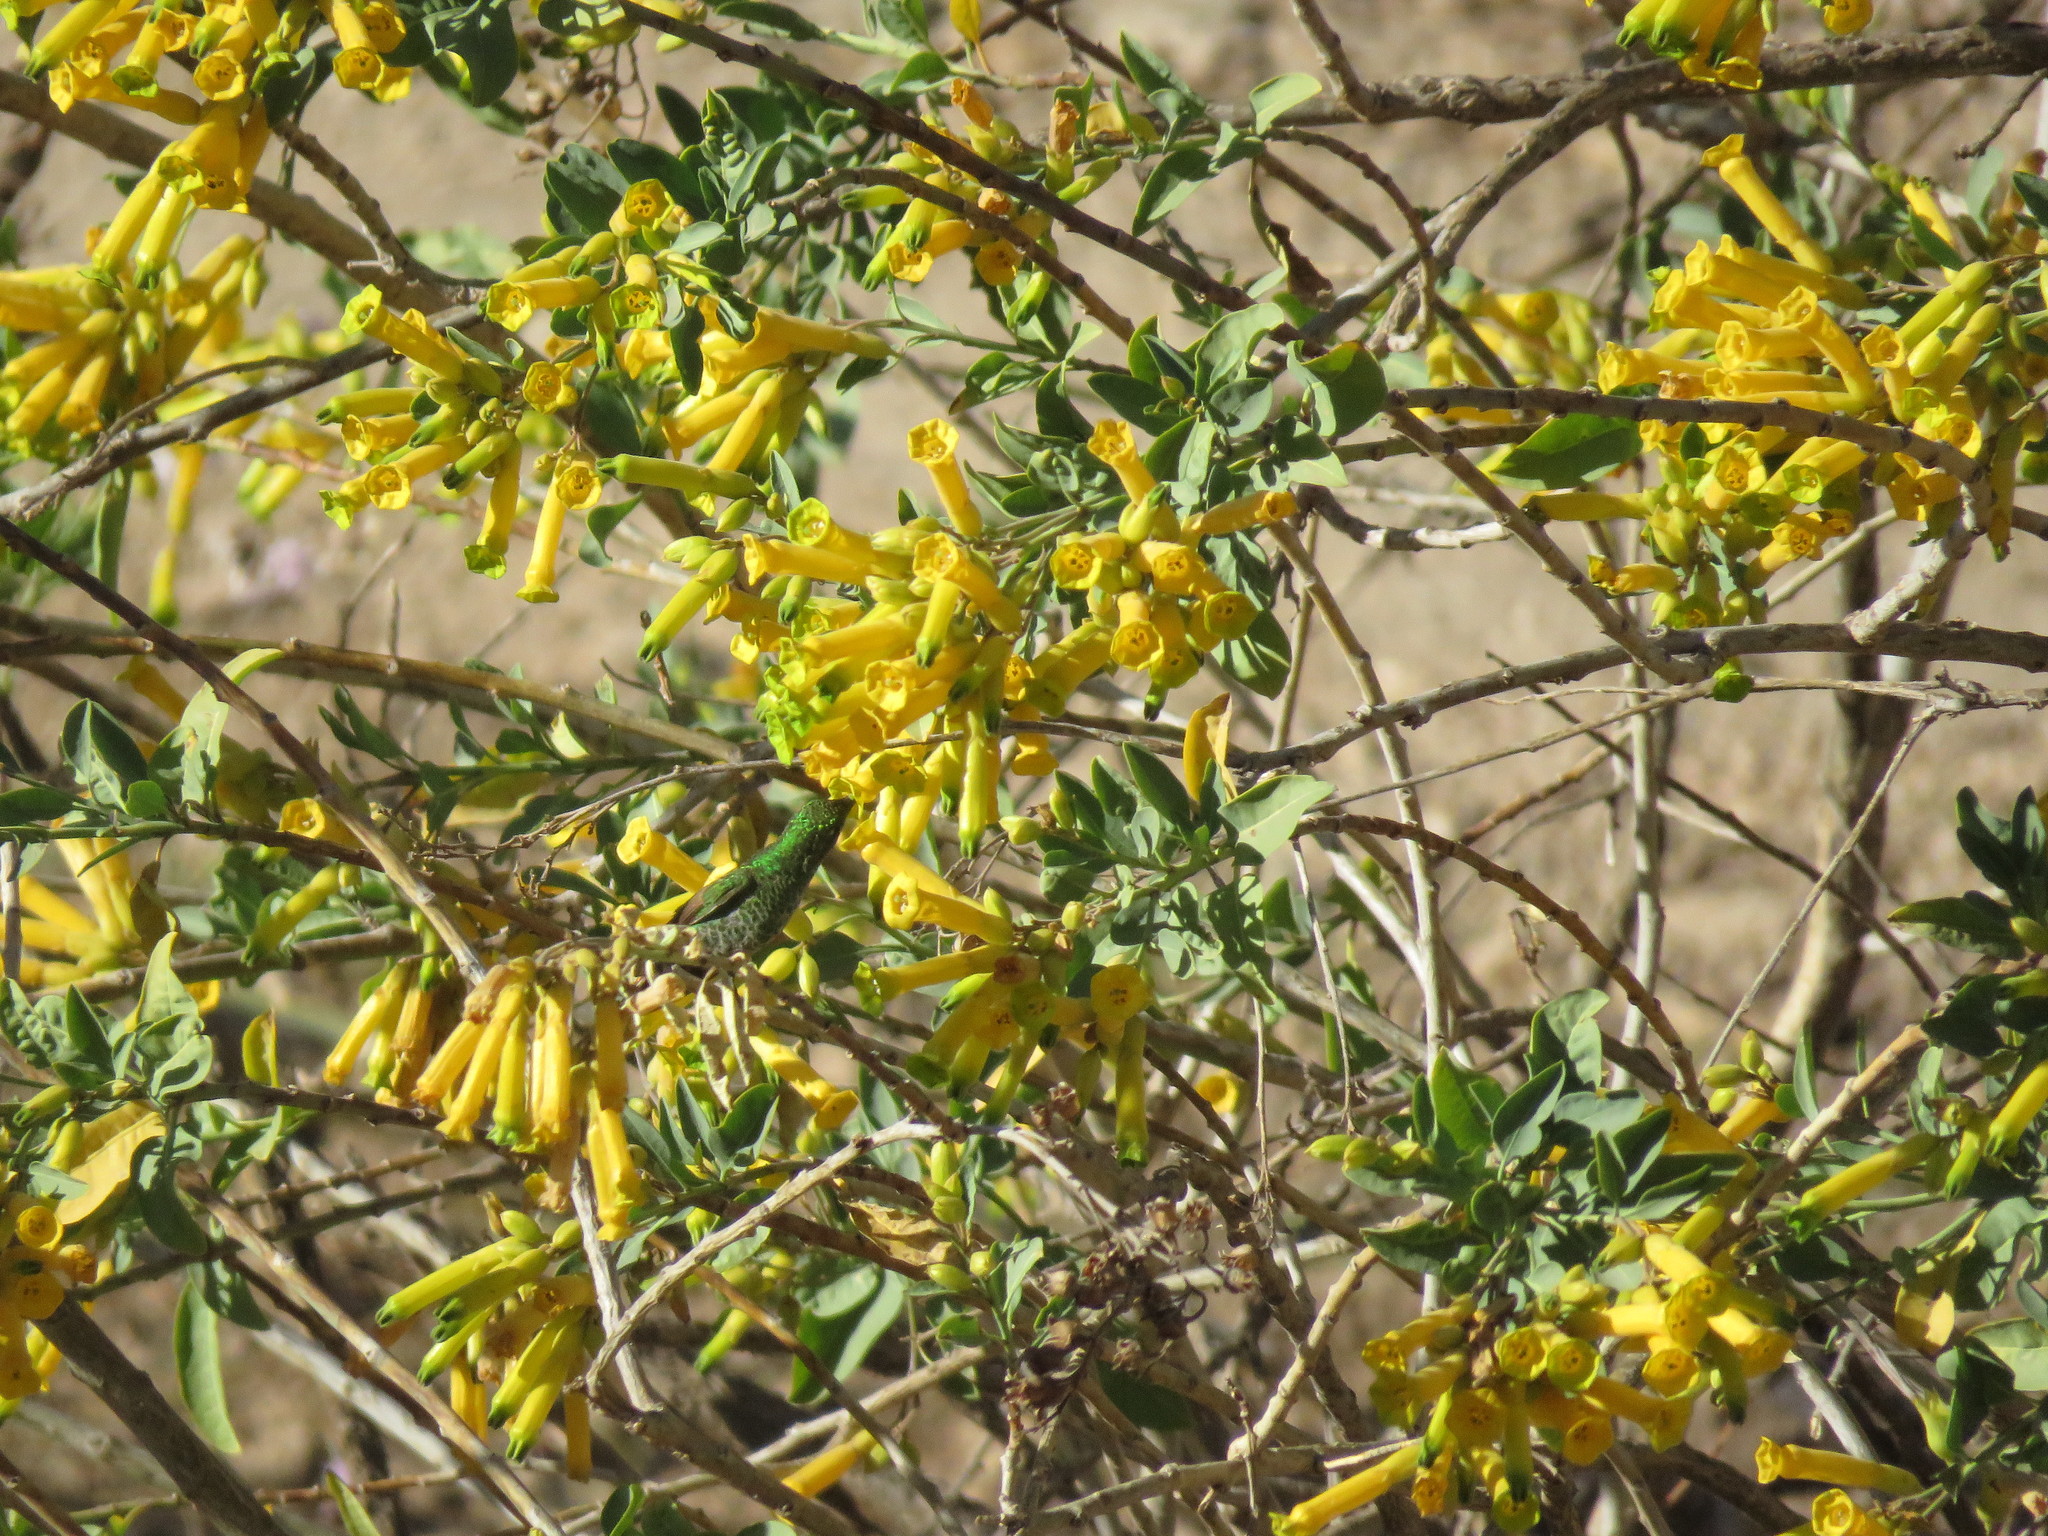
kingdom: Animalia
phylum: Chordata
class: Aves
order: Apodiformes
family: Trochilidae
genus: Sappho
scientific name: Sappho sparganurus
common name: Red-tailed comet
